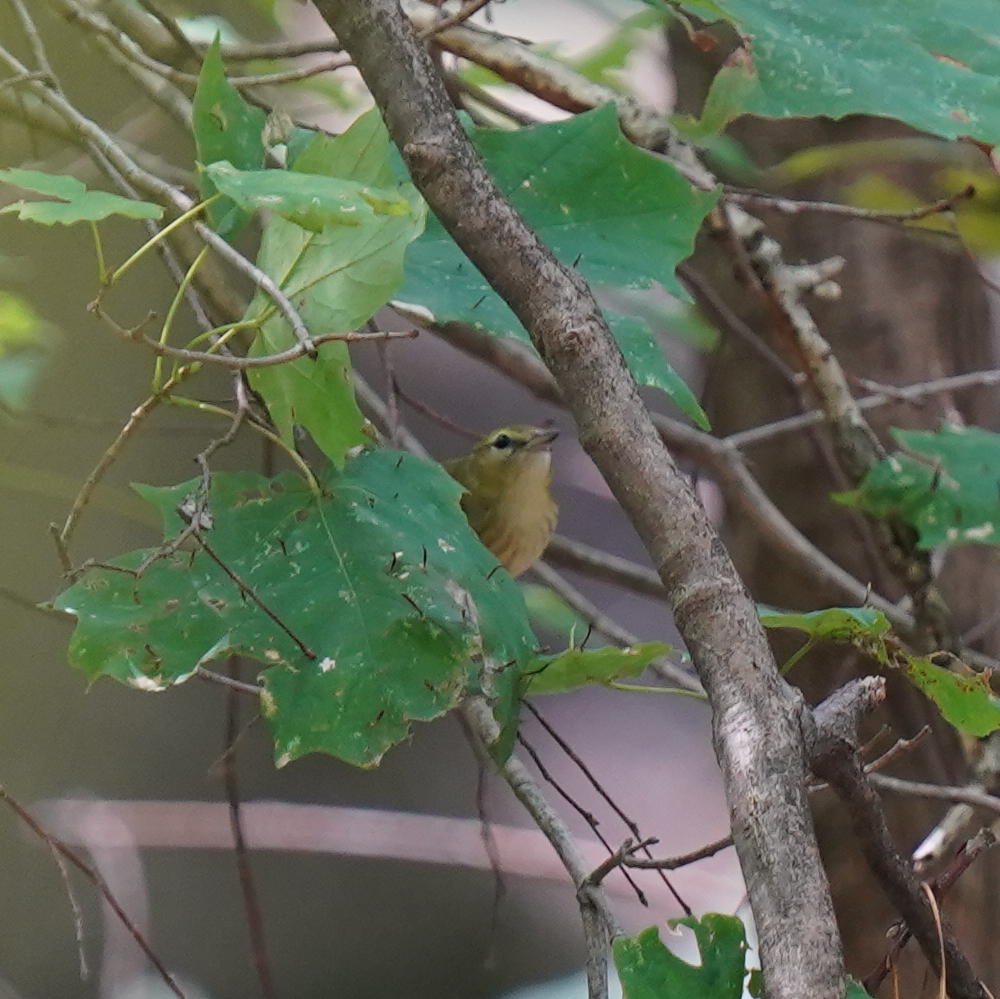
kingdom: Animalia
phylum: Chordata
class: Aves
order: Passeriformes
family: Parulidae
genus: Setophaga
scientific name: Setophaga castanea
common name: Bay-breasted warbler
